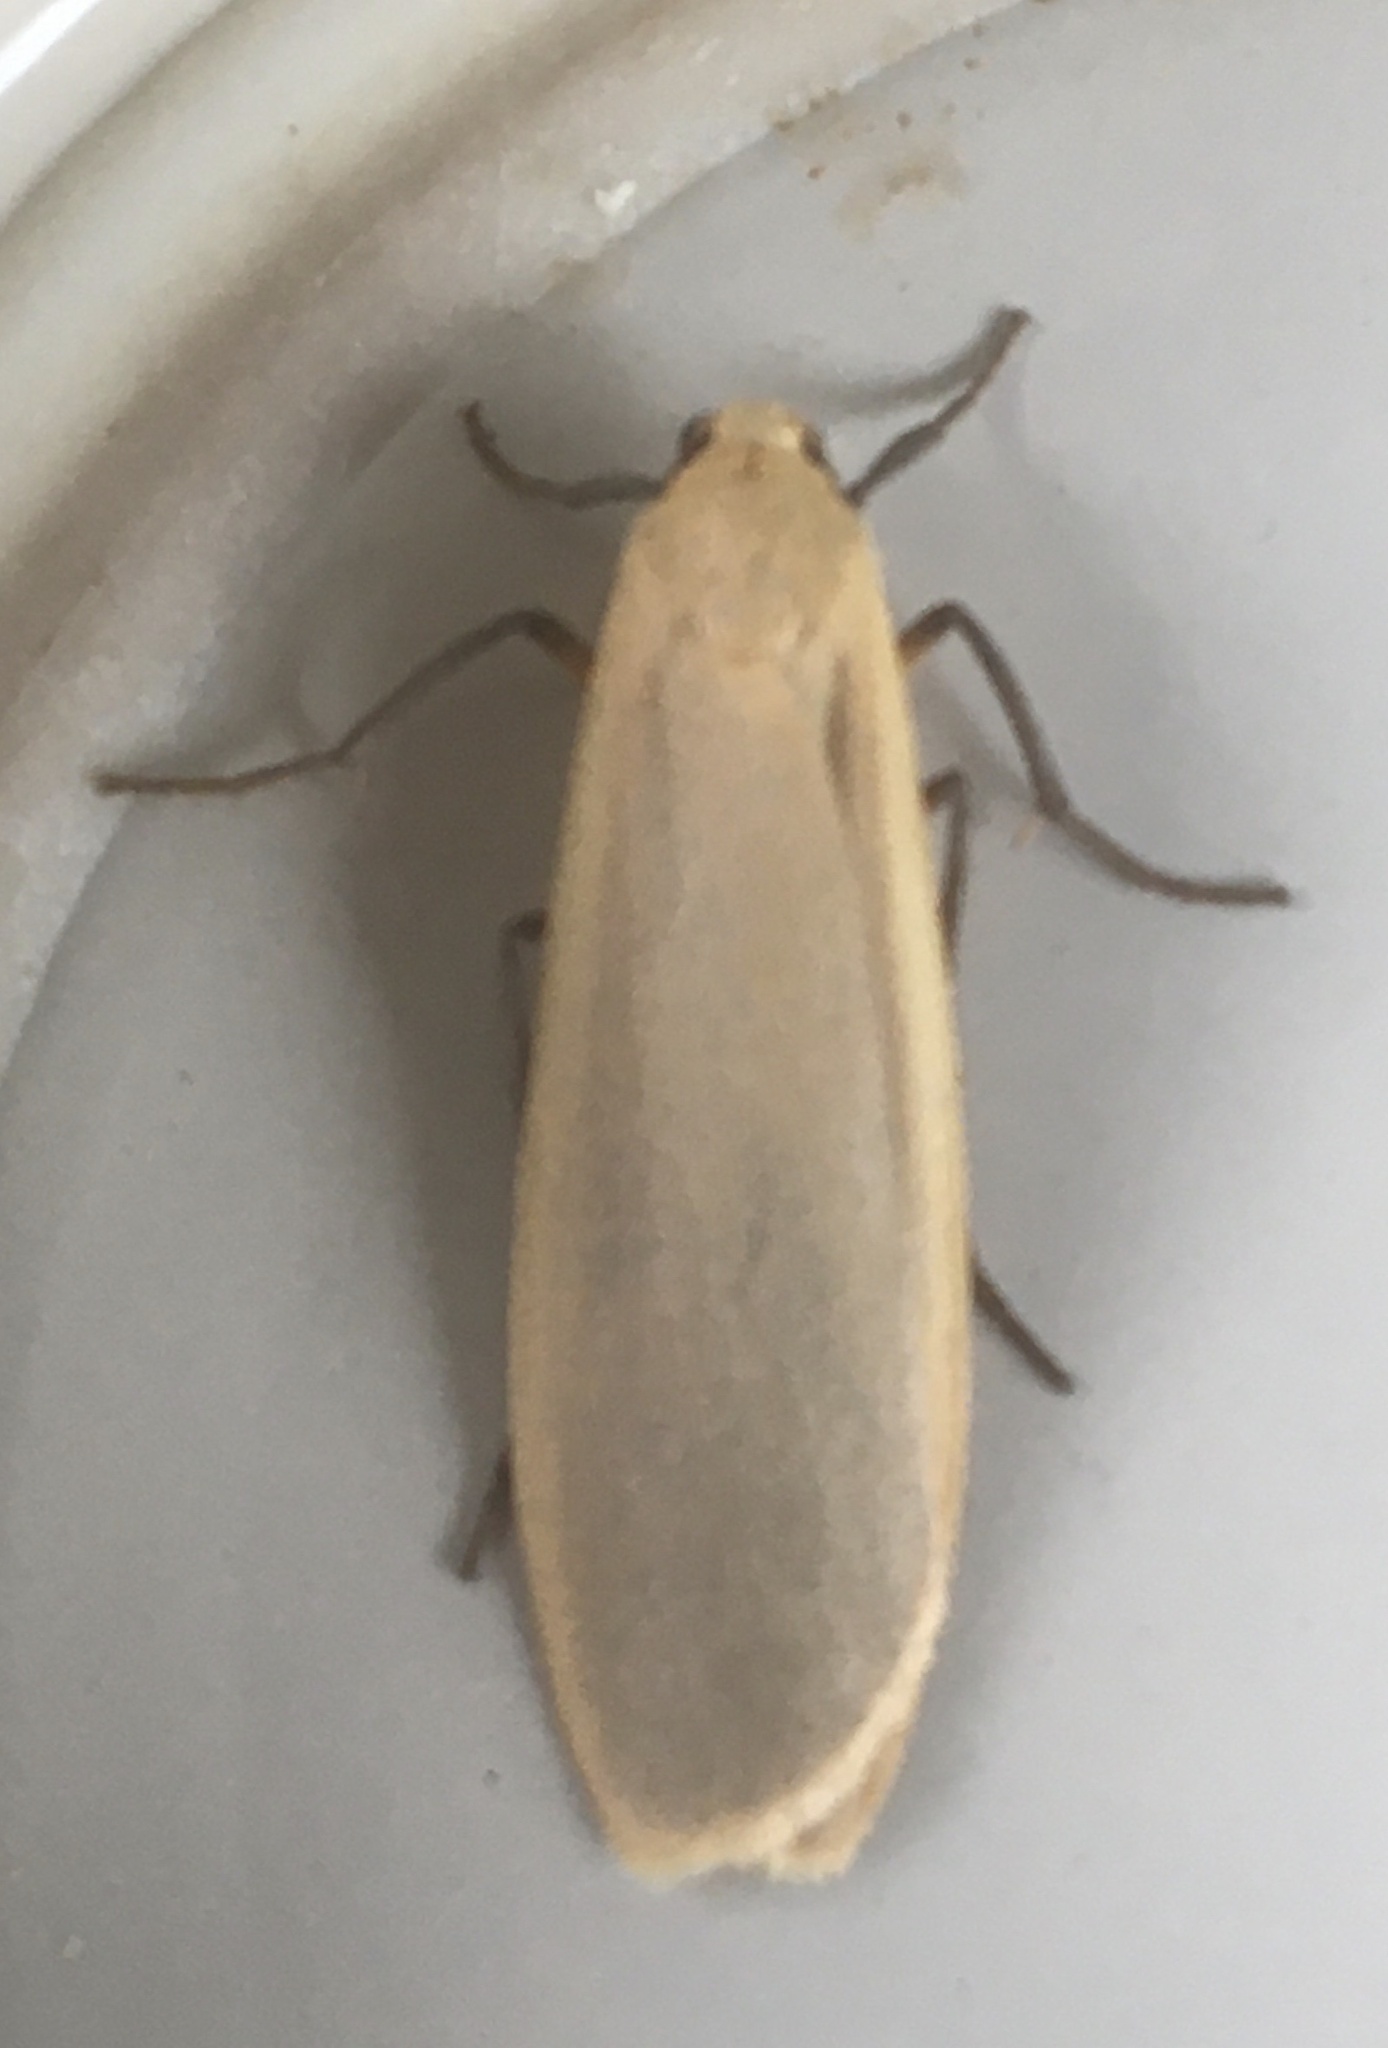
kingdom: Animalia
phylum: Arthropoda
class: Insecta
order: Lepidoptera
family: Erebidae
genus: Katha
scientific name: Katha depressa
